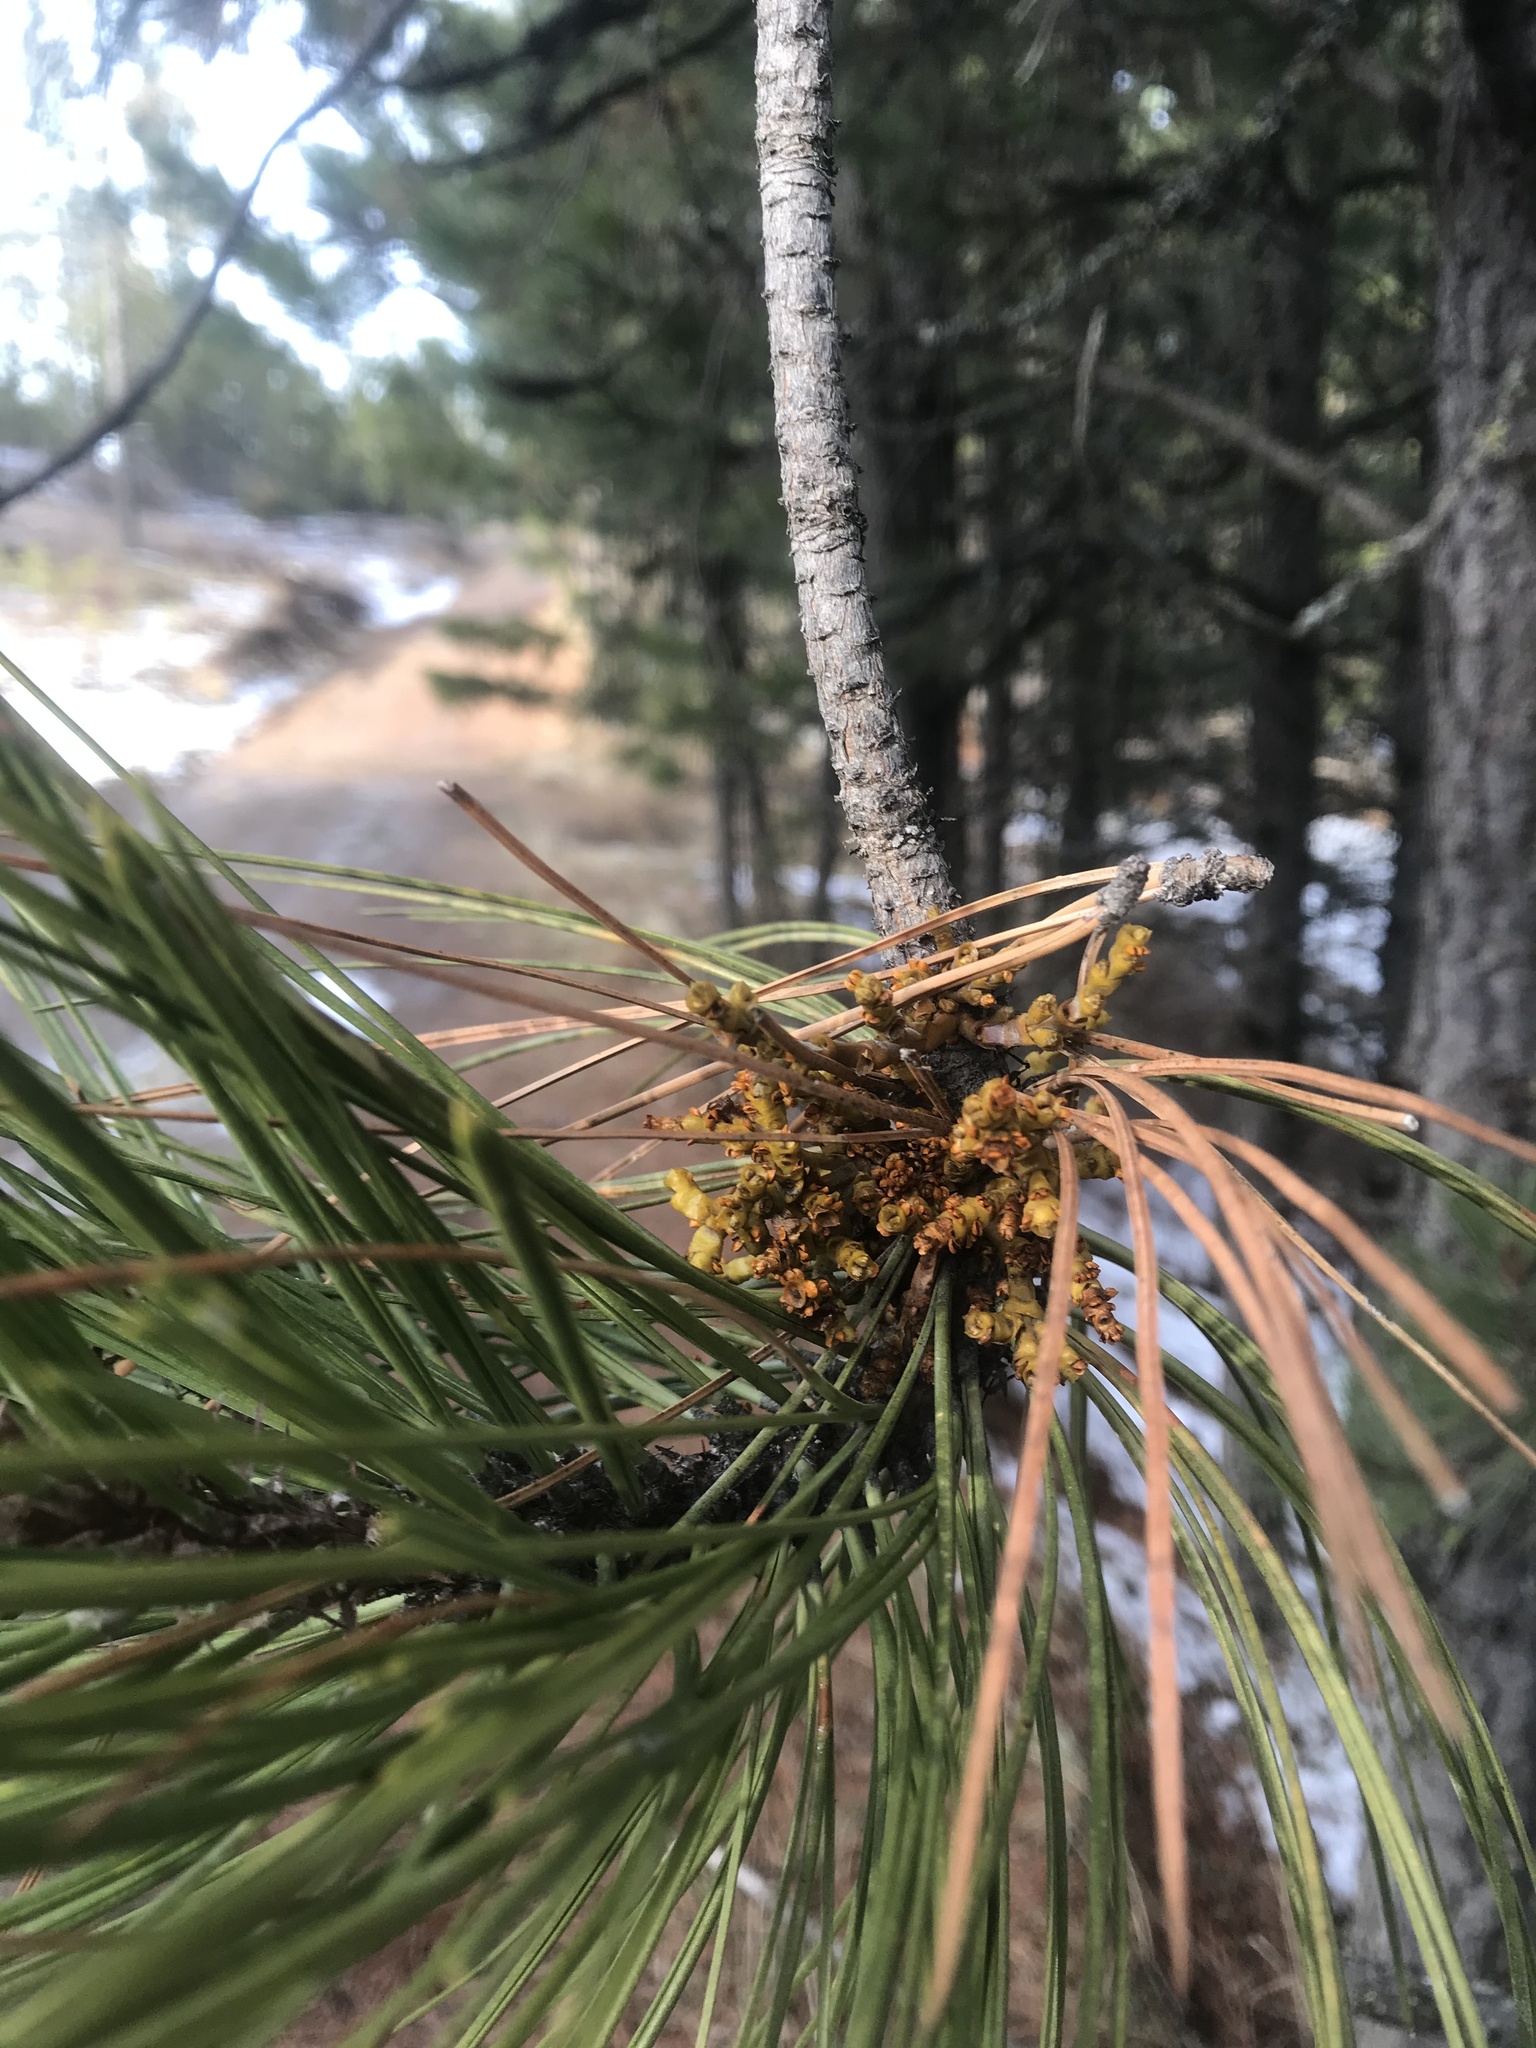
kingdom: Plantae
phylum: Tracheophyta
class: Magnoliopsida
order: Santalales
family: Viscaceae
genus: Arceuthobium
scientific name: Arceuthobium campylopodum
